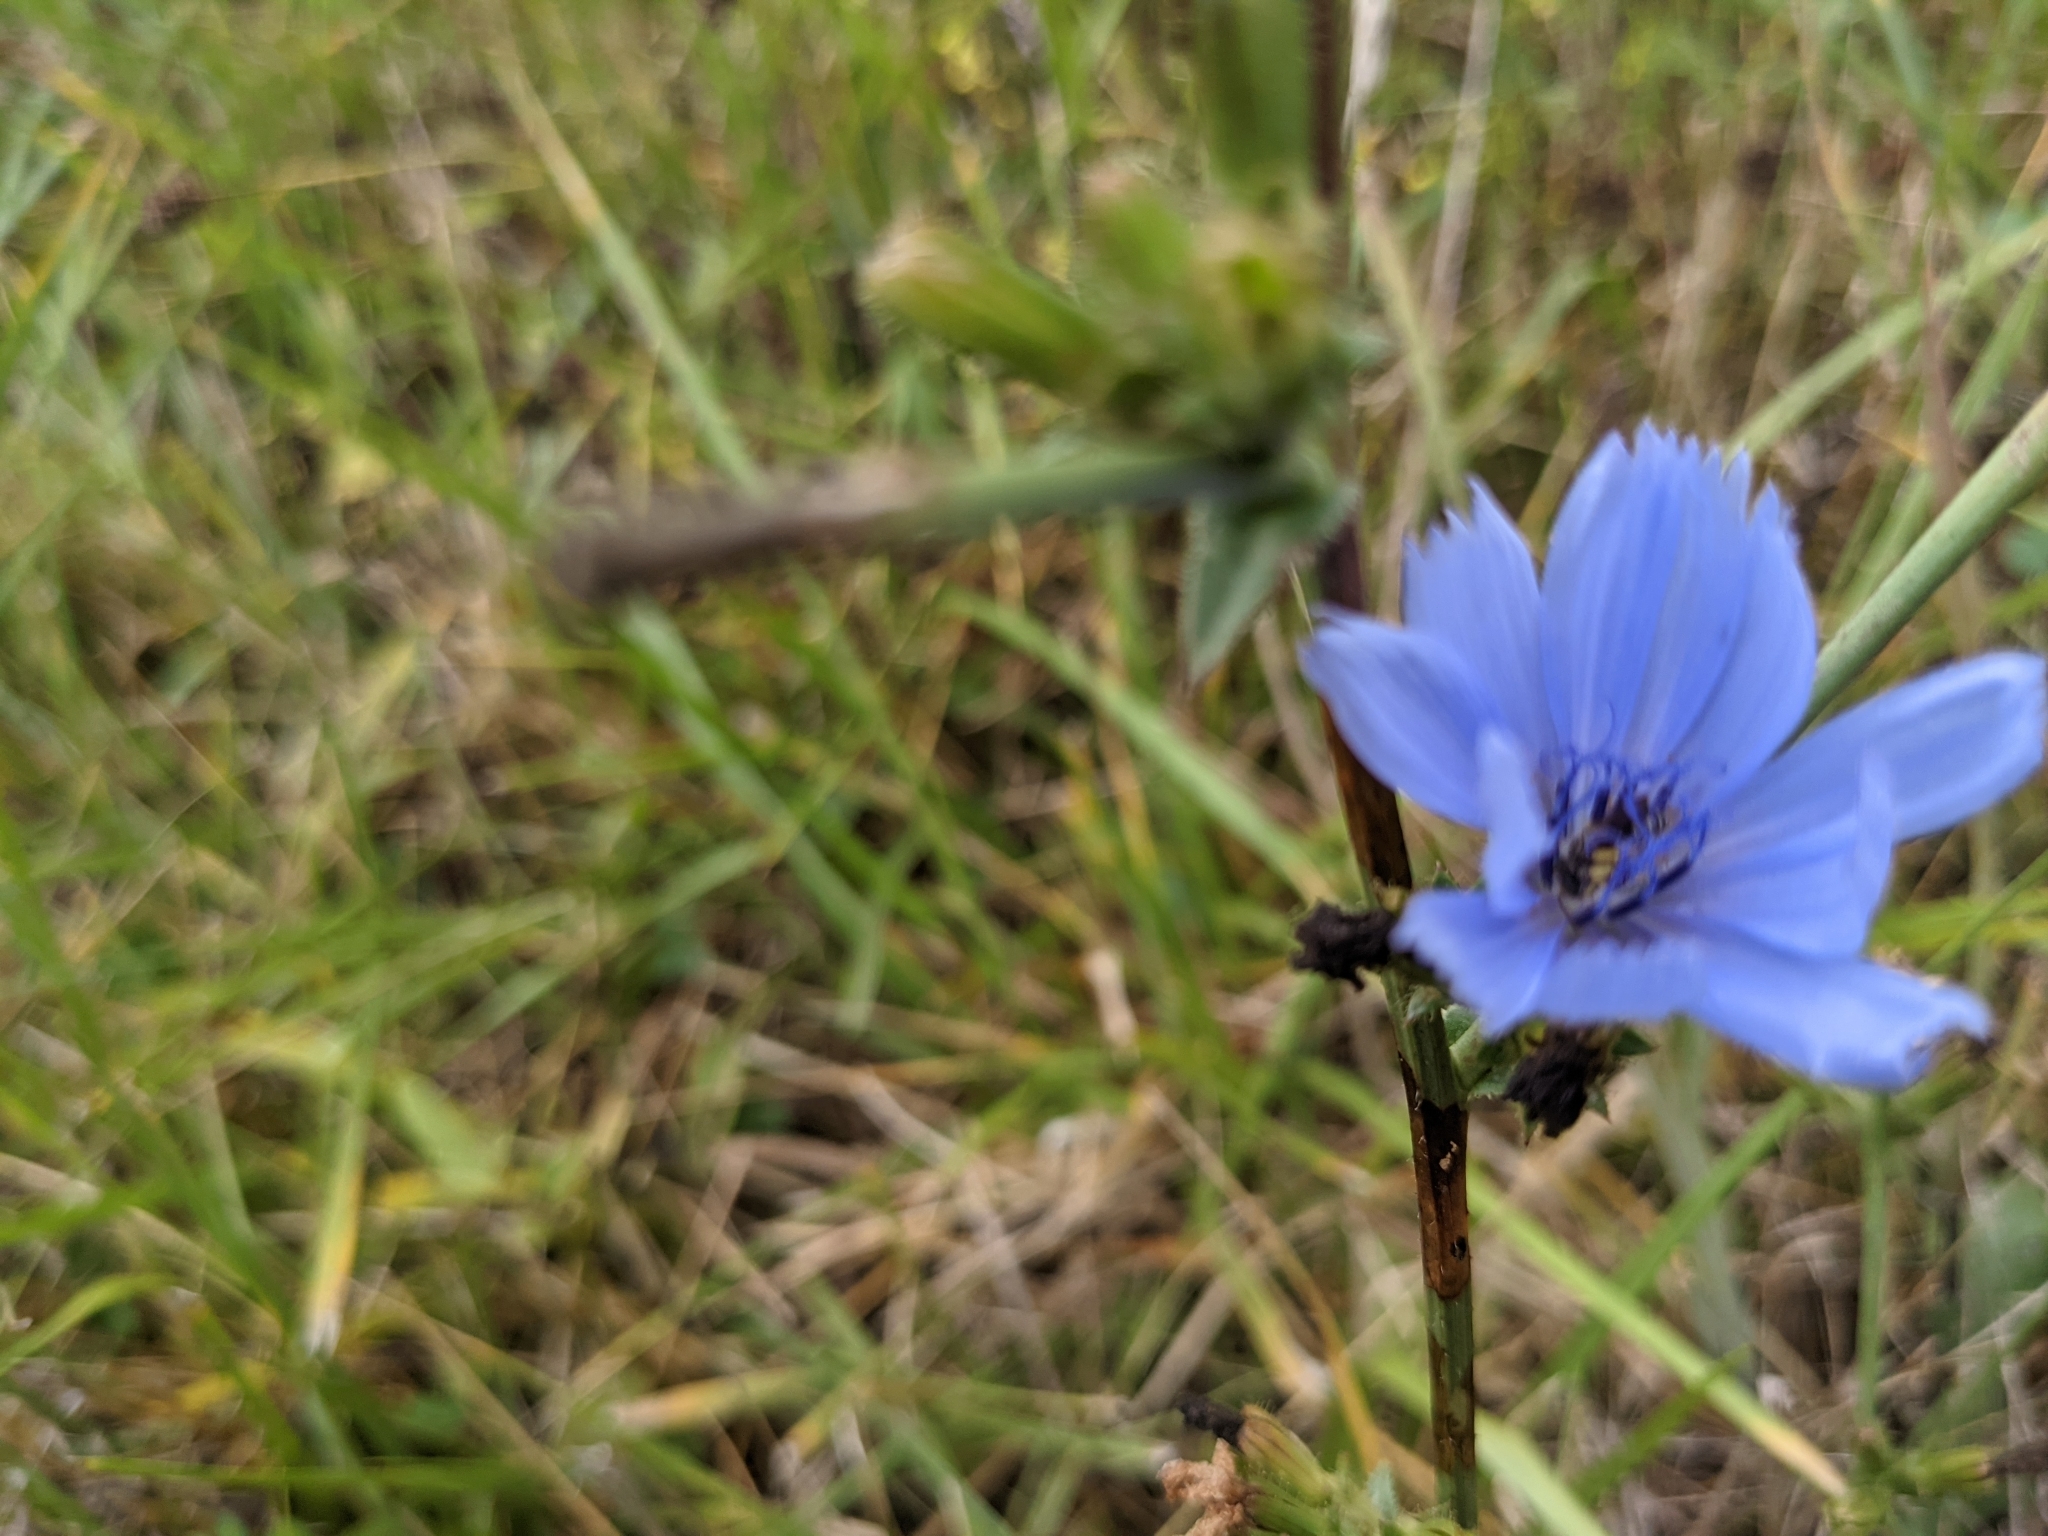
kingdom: Animalia
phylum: Arthropoda
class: Insecta
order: Hymenoptera
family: Andrenidae
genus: Calliopsis
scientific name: Calliopsis andreniformis
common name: Eastern calliopsis bee
